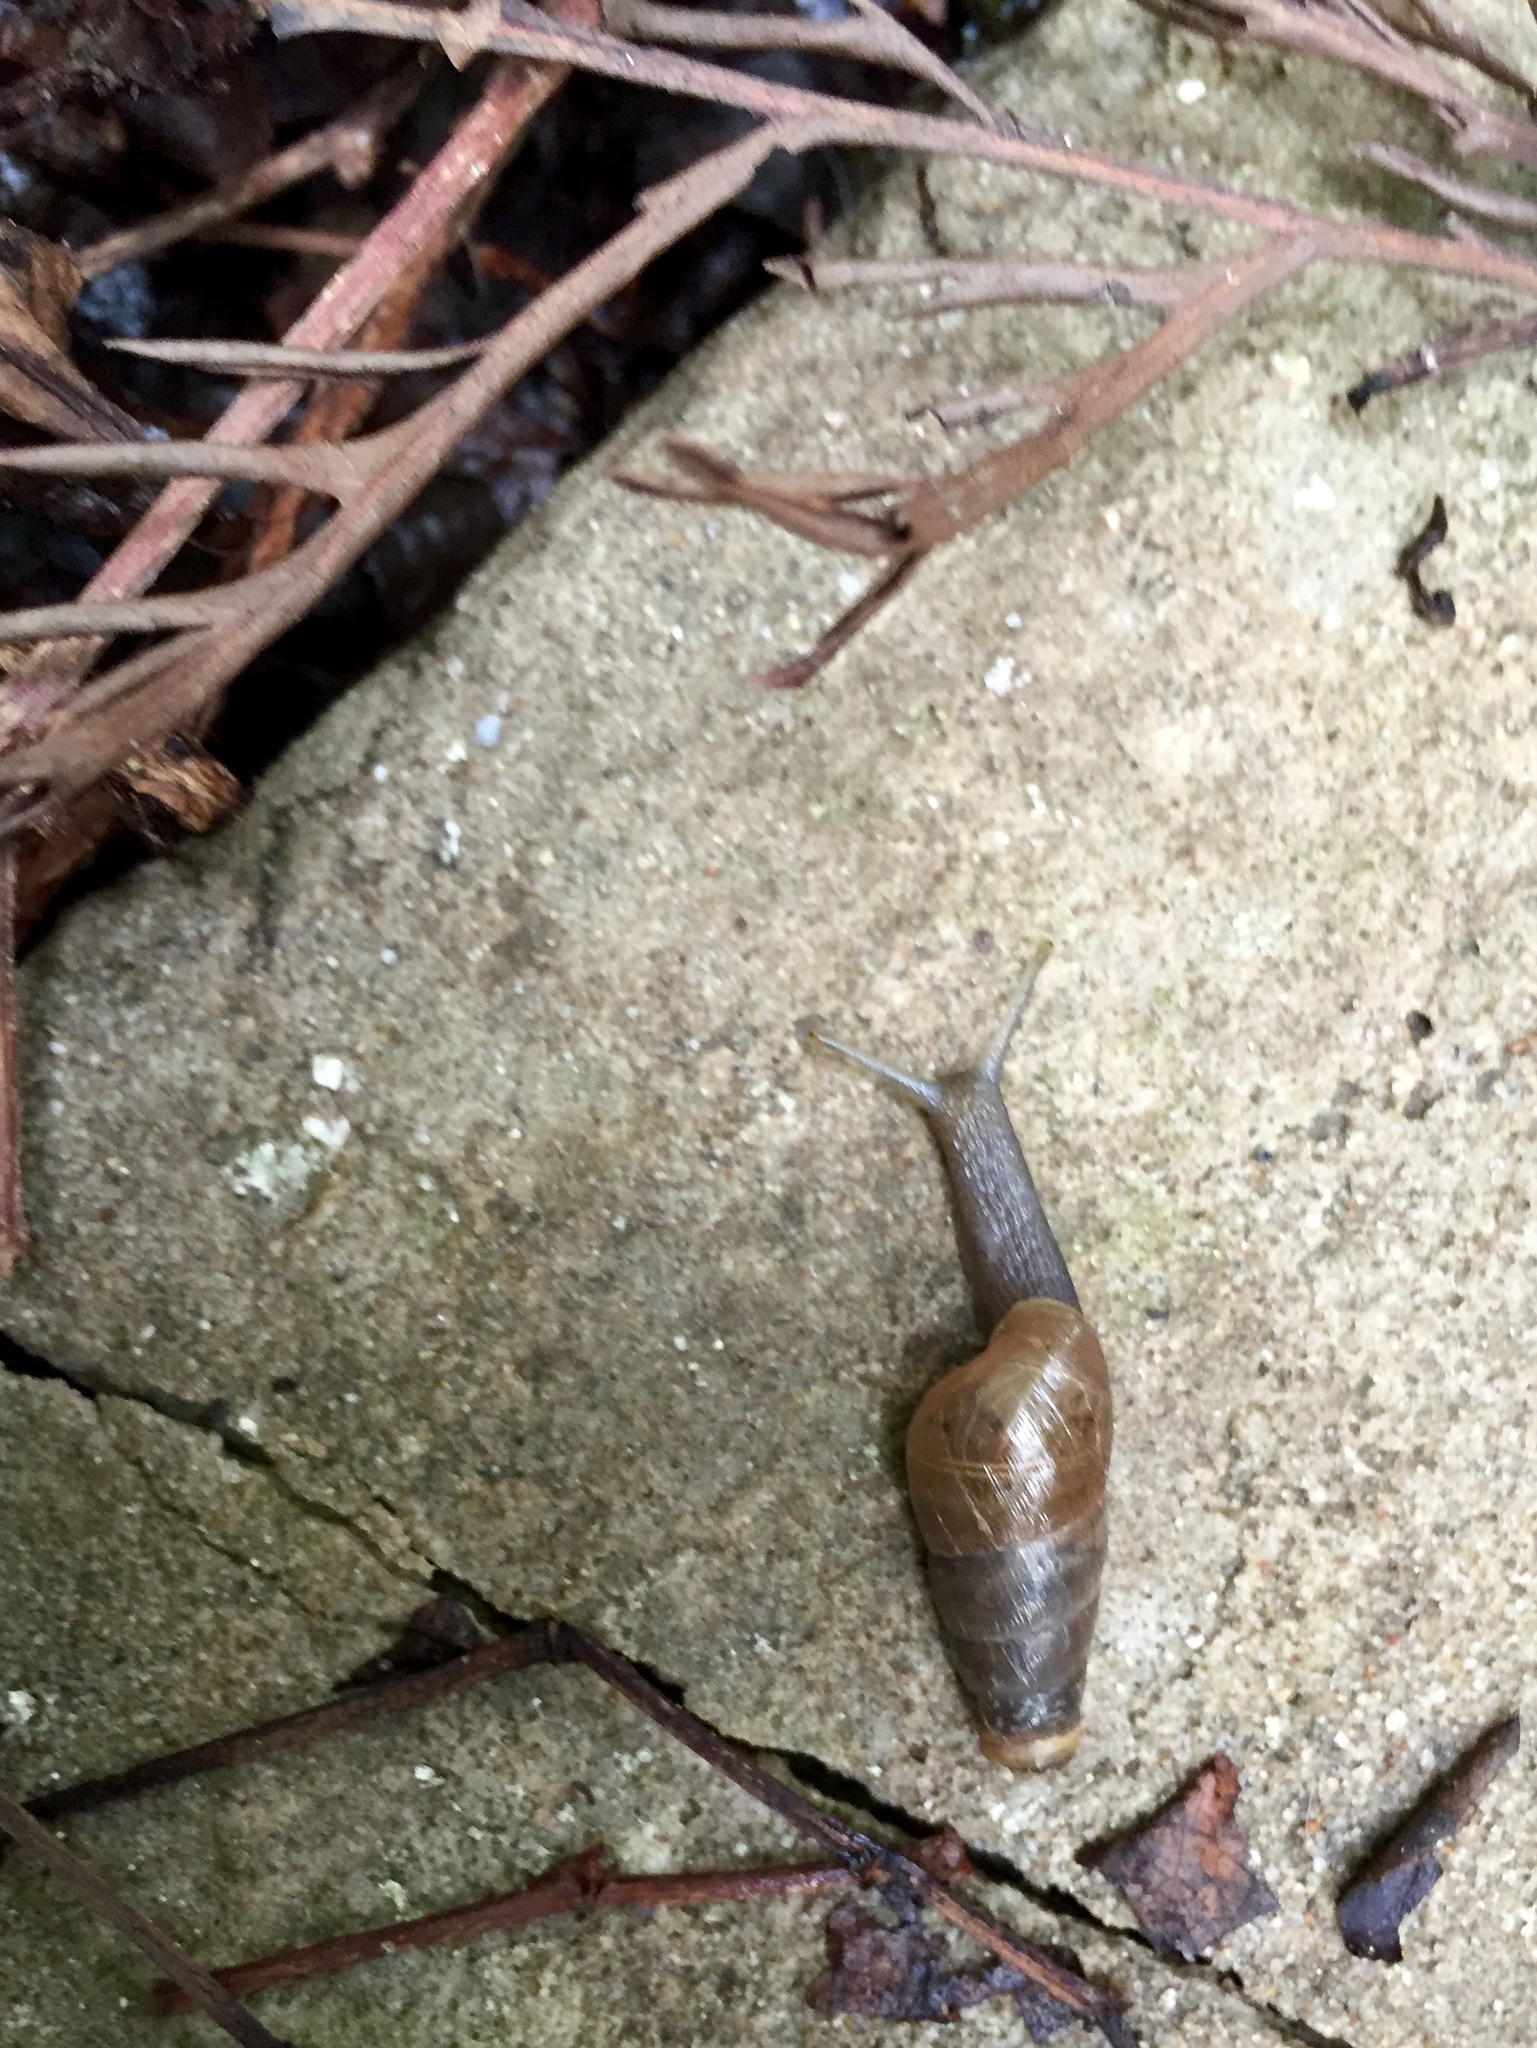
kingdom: Animalia
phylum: Mollusca
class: Gastropoda
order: Stylommatophora
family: Achatinidae
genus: Rumina
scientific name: Rumina decollata
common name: Decollate snail
